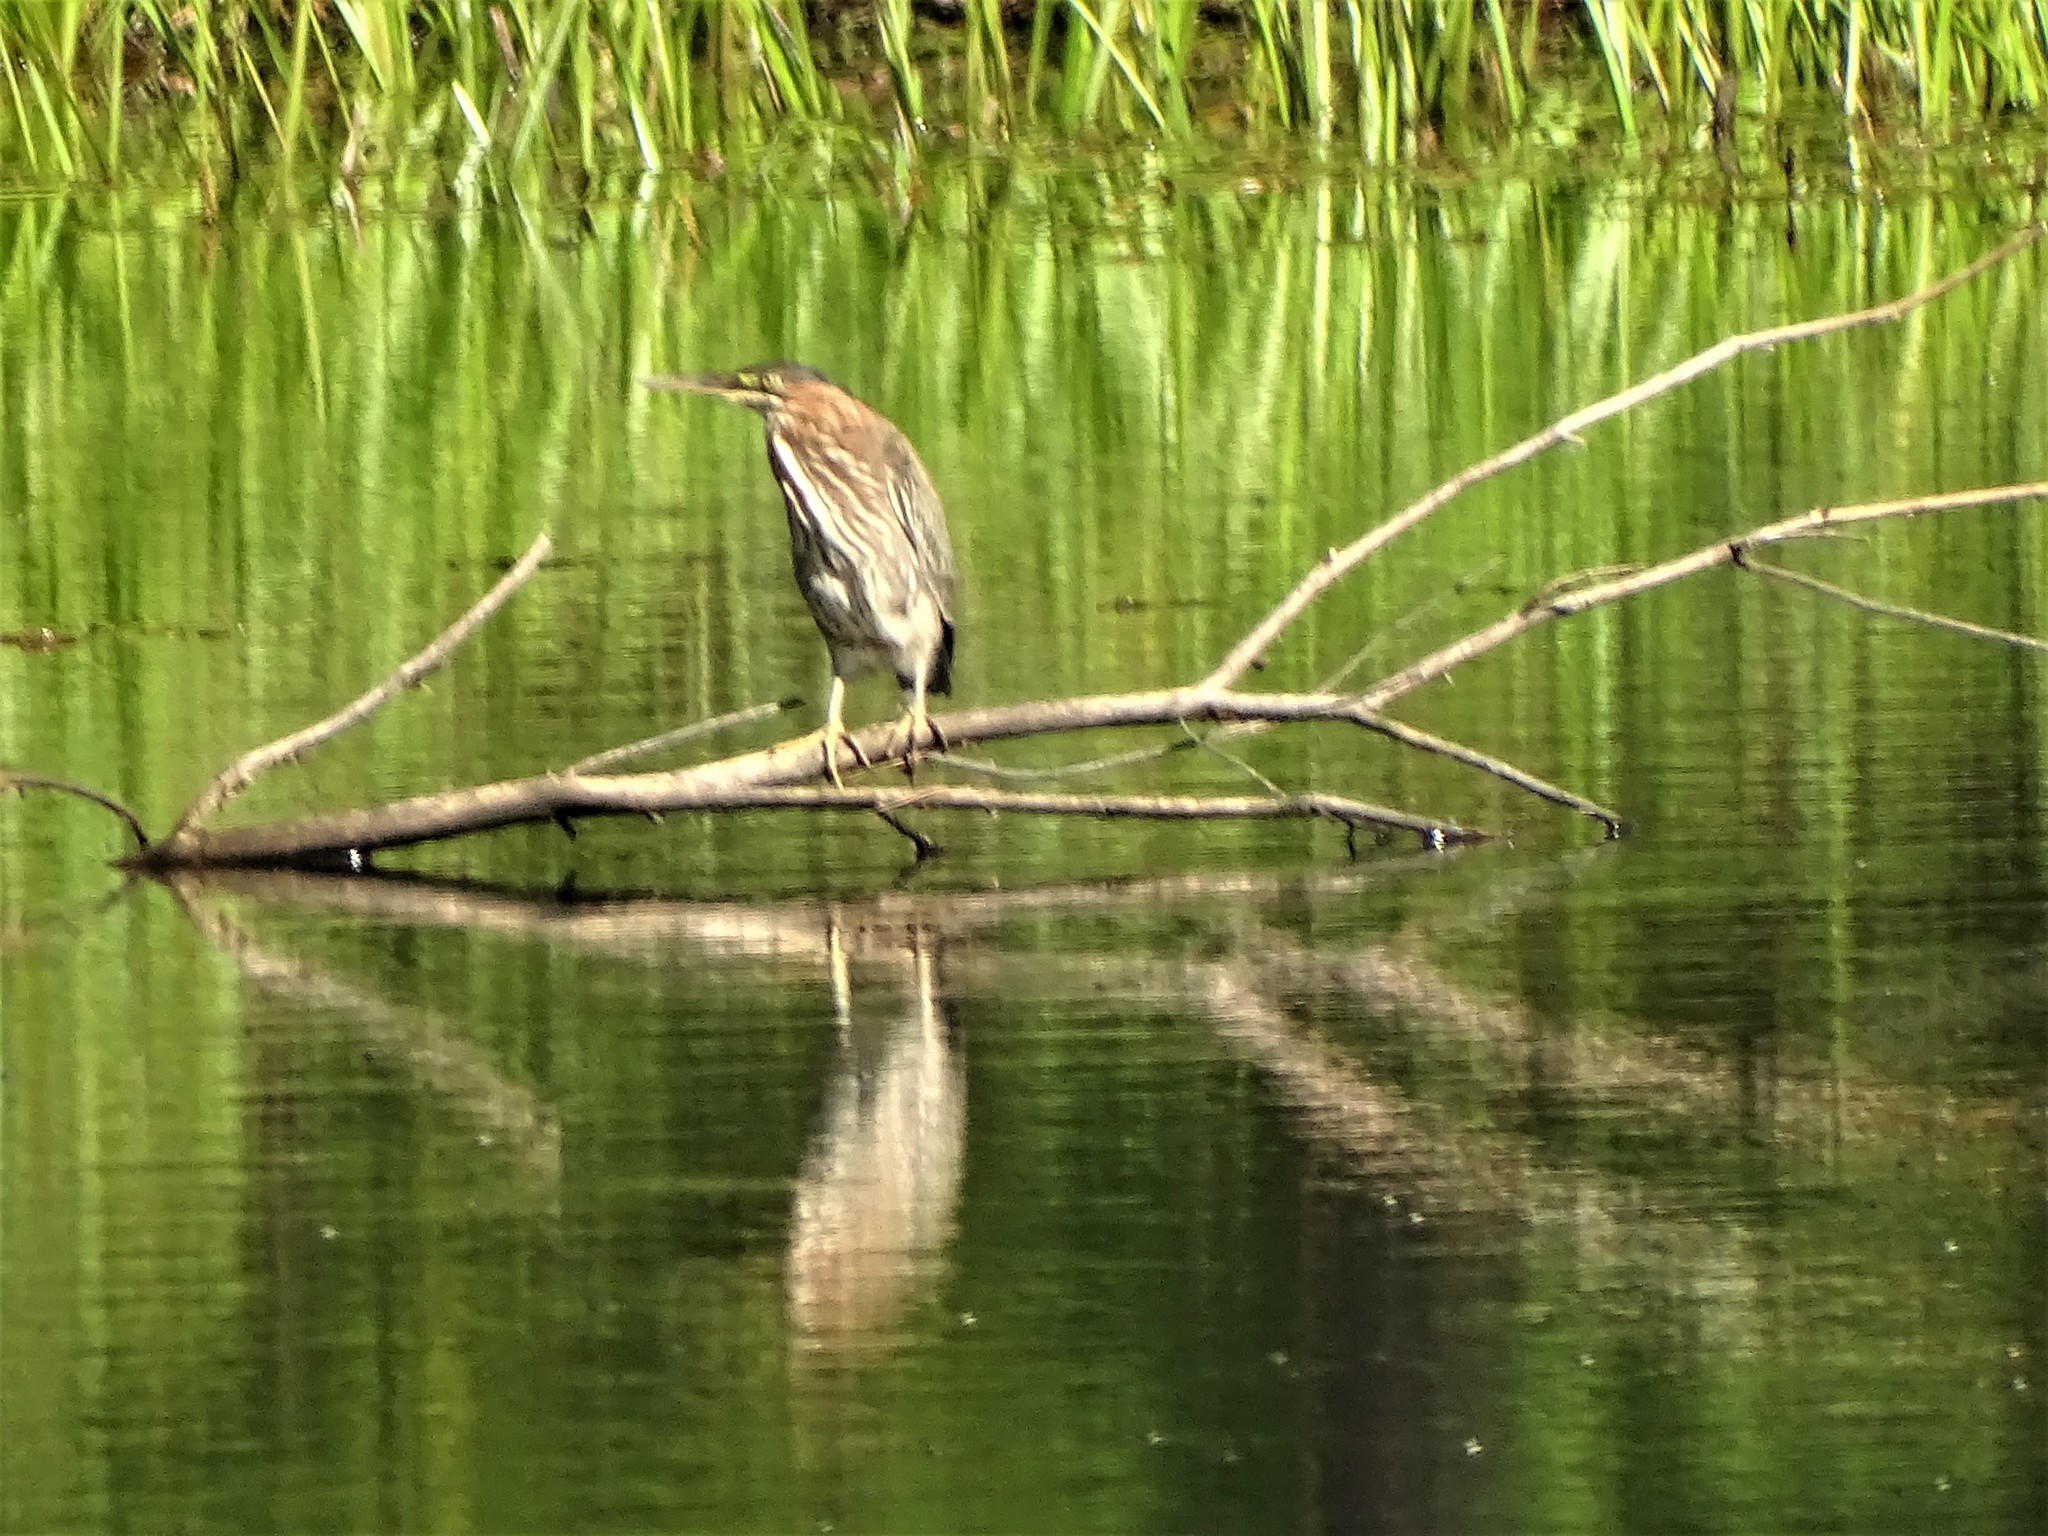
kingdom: Animalia
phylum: Chordata
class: Aves
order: Pelecaniformes
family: Ardeidae
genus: Butorides
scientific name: Butorides virescens
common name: Green heron
